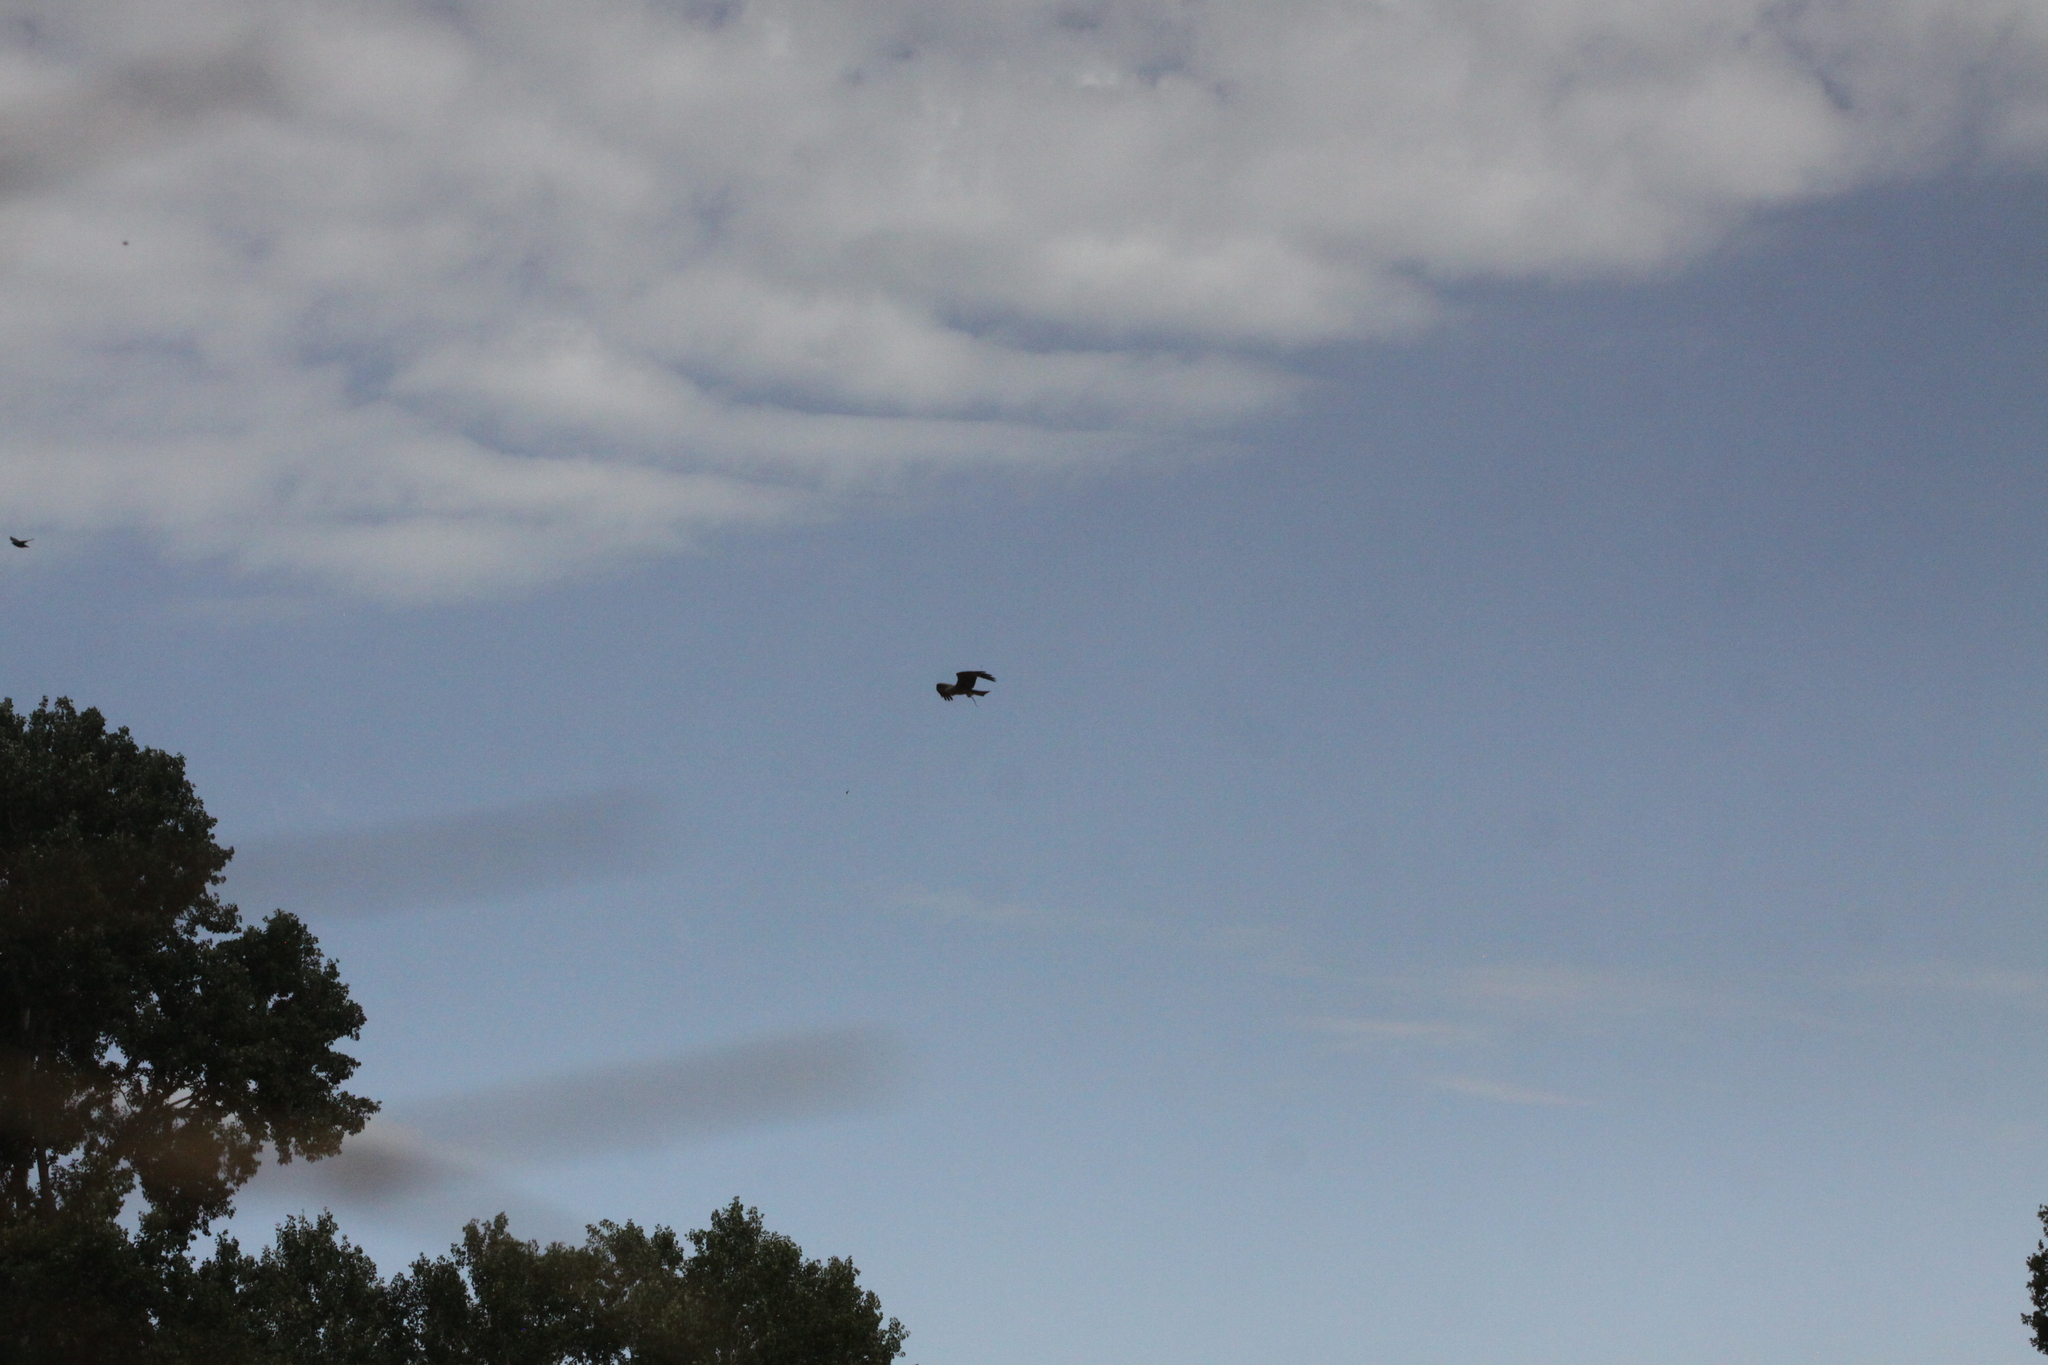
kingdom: Animalia
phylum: Chordata
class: Aves
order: Accipitriformes
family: Accipitridae
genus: Milvus
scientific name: Milvus migrans
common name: Black kite
